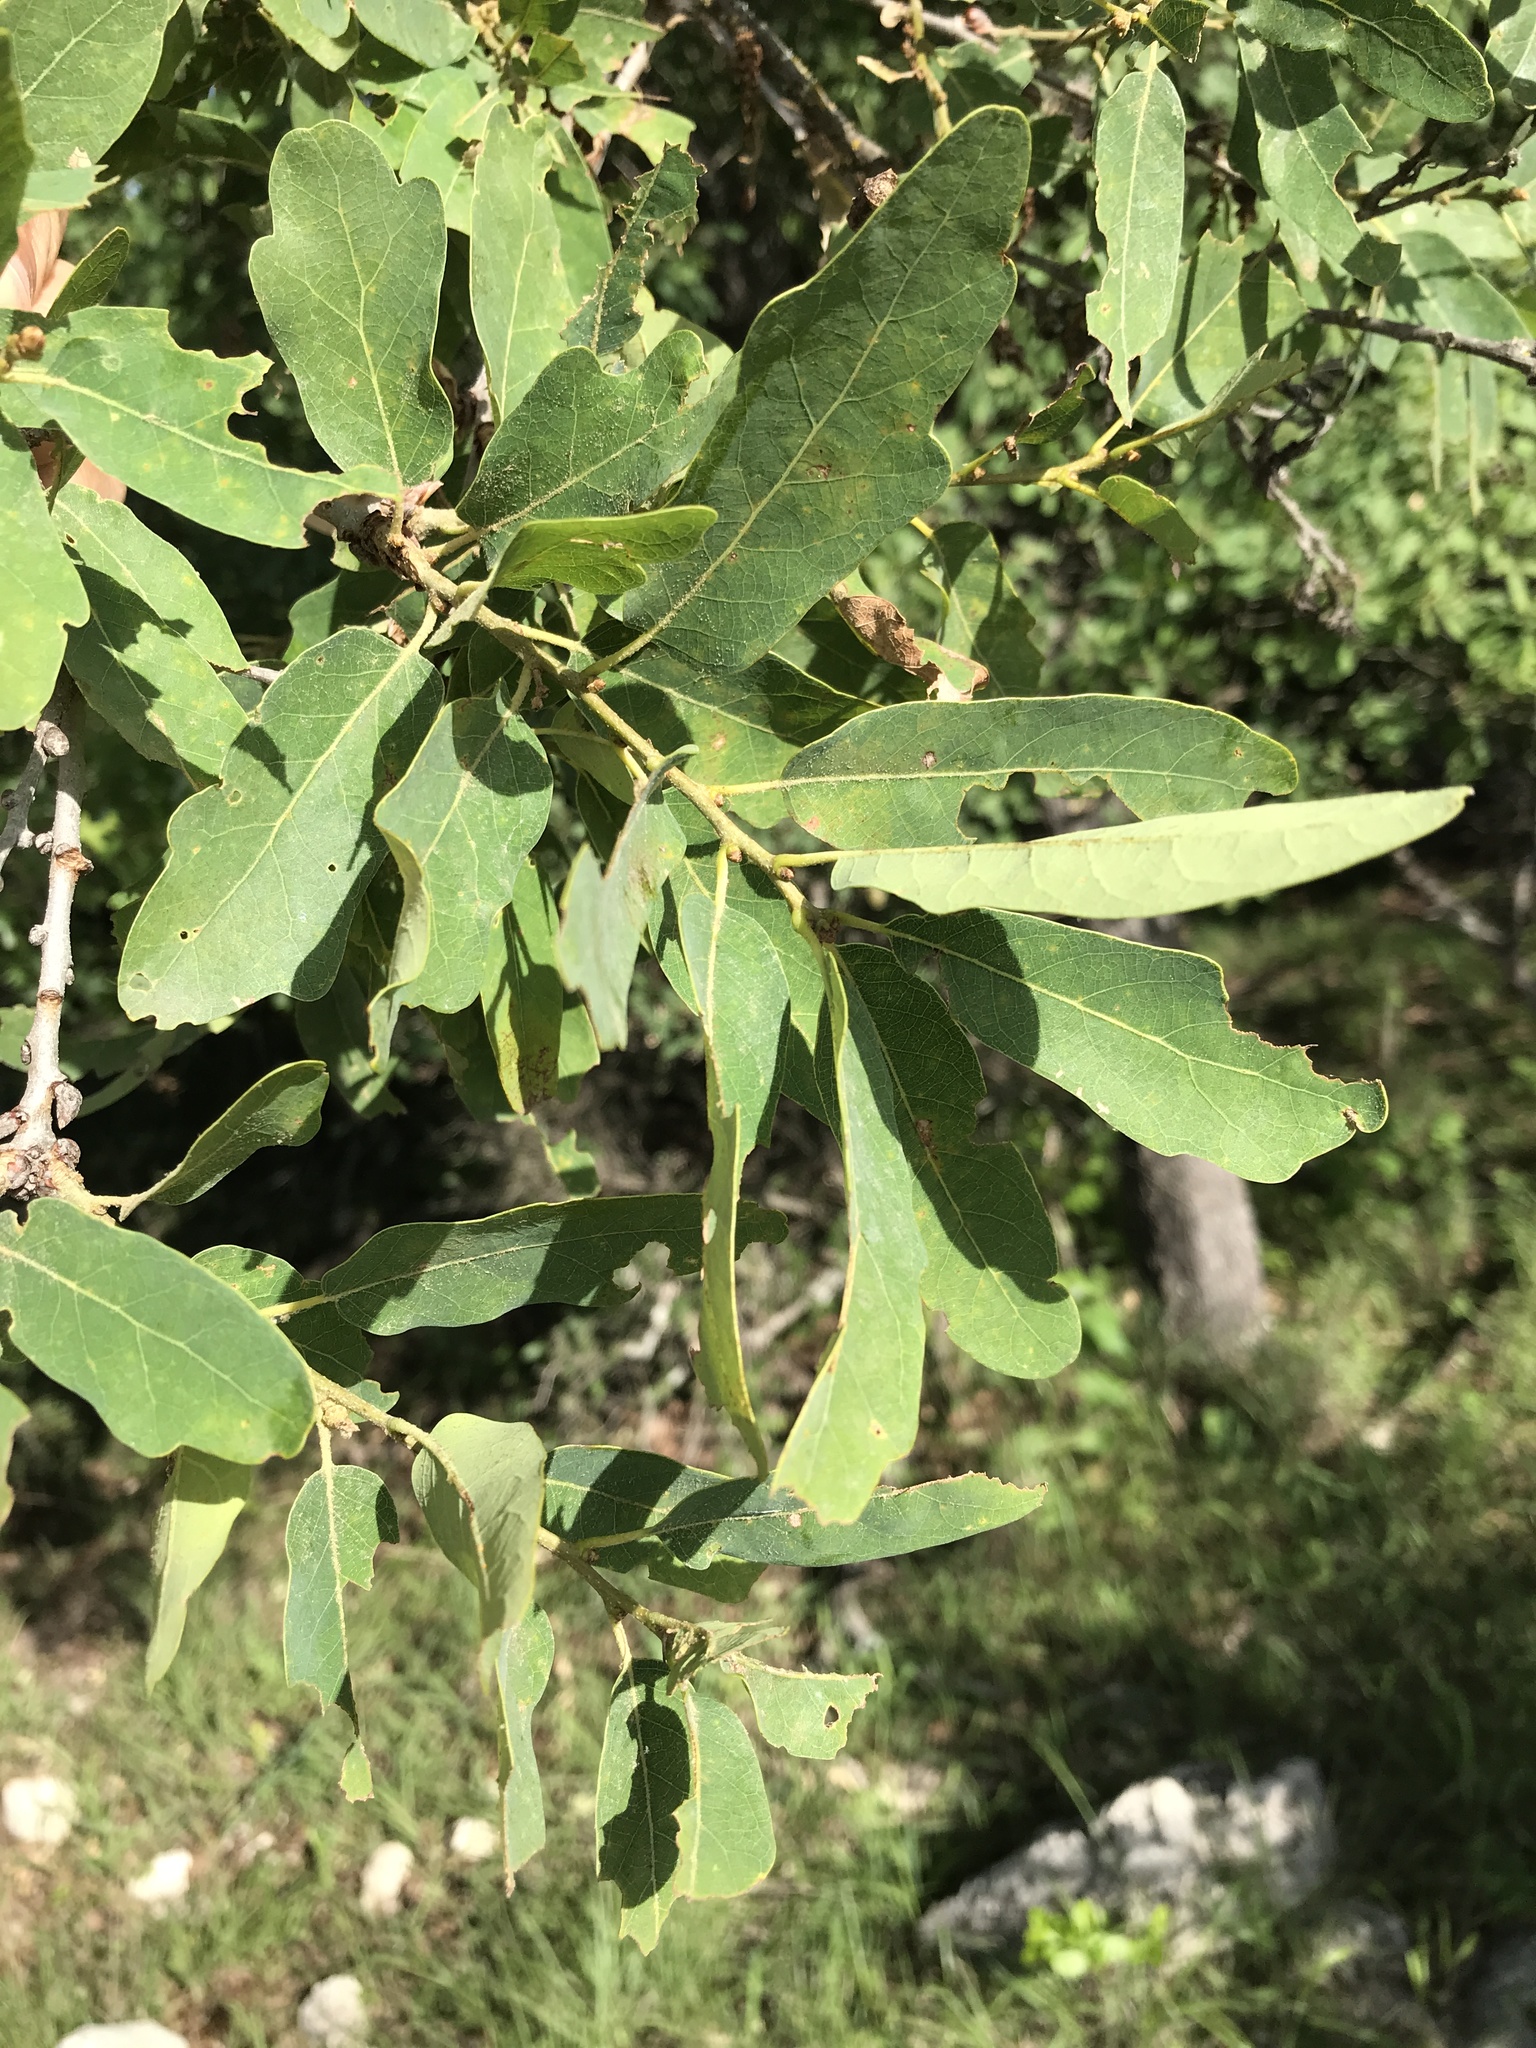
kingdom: Plantae
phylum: Tracheophyta
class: Magnoliopsida
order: Fagales
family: Fagaceae
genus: Quercus
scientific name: Quercus laceyi
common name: Lacey oak
